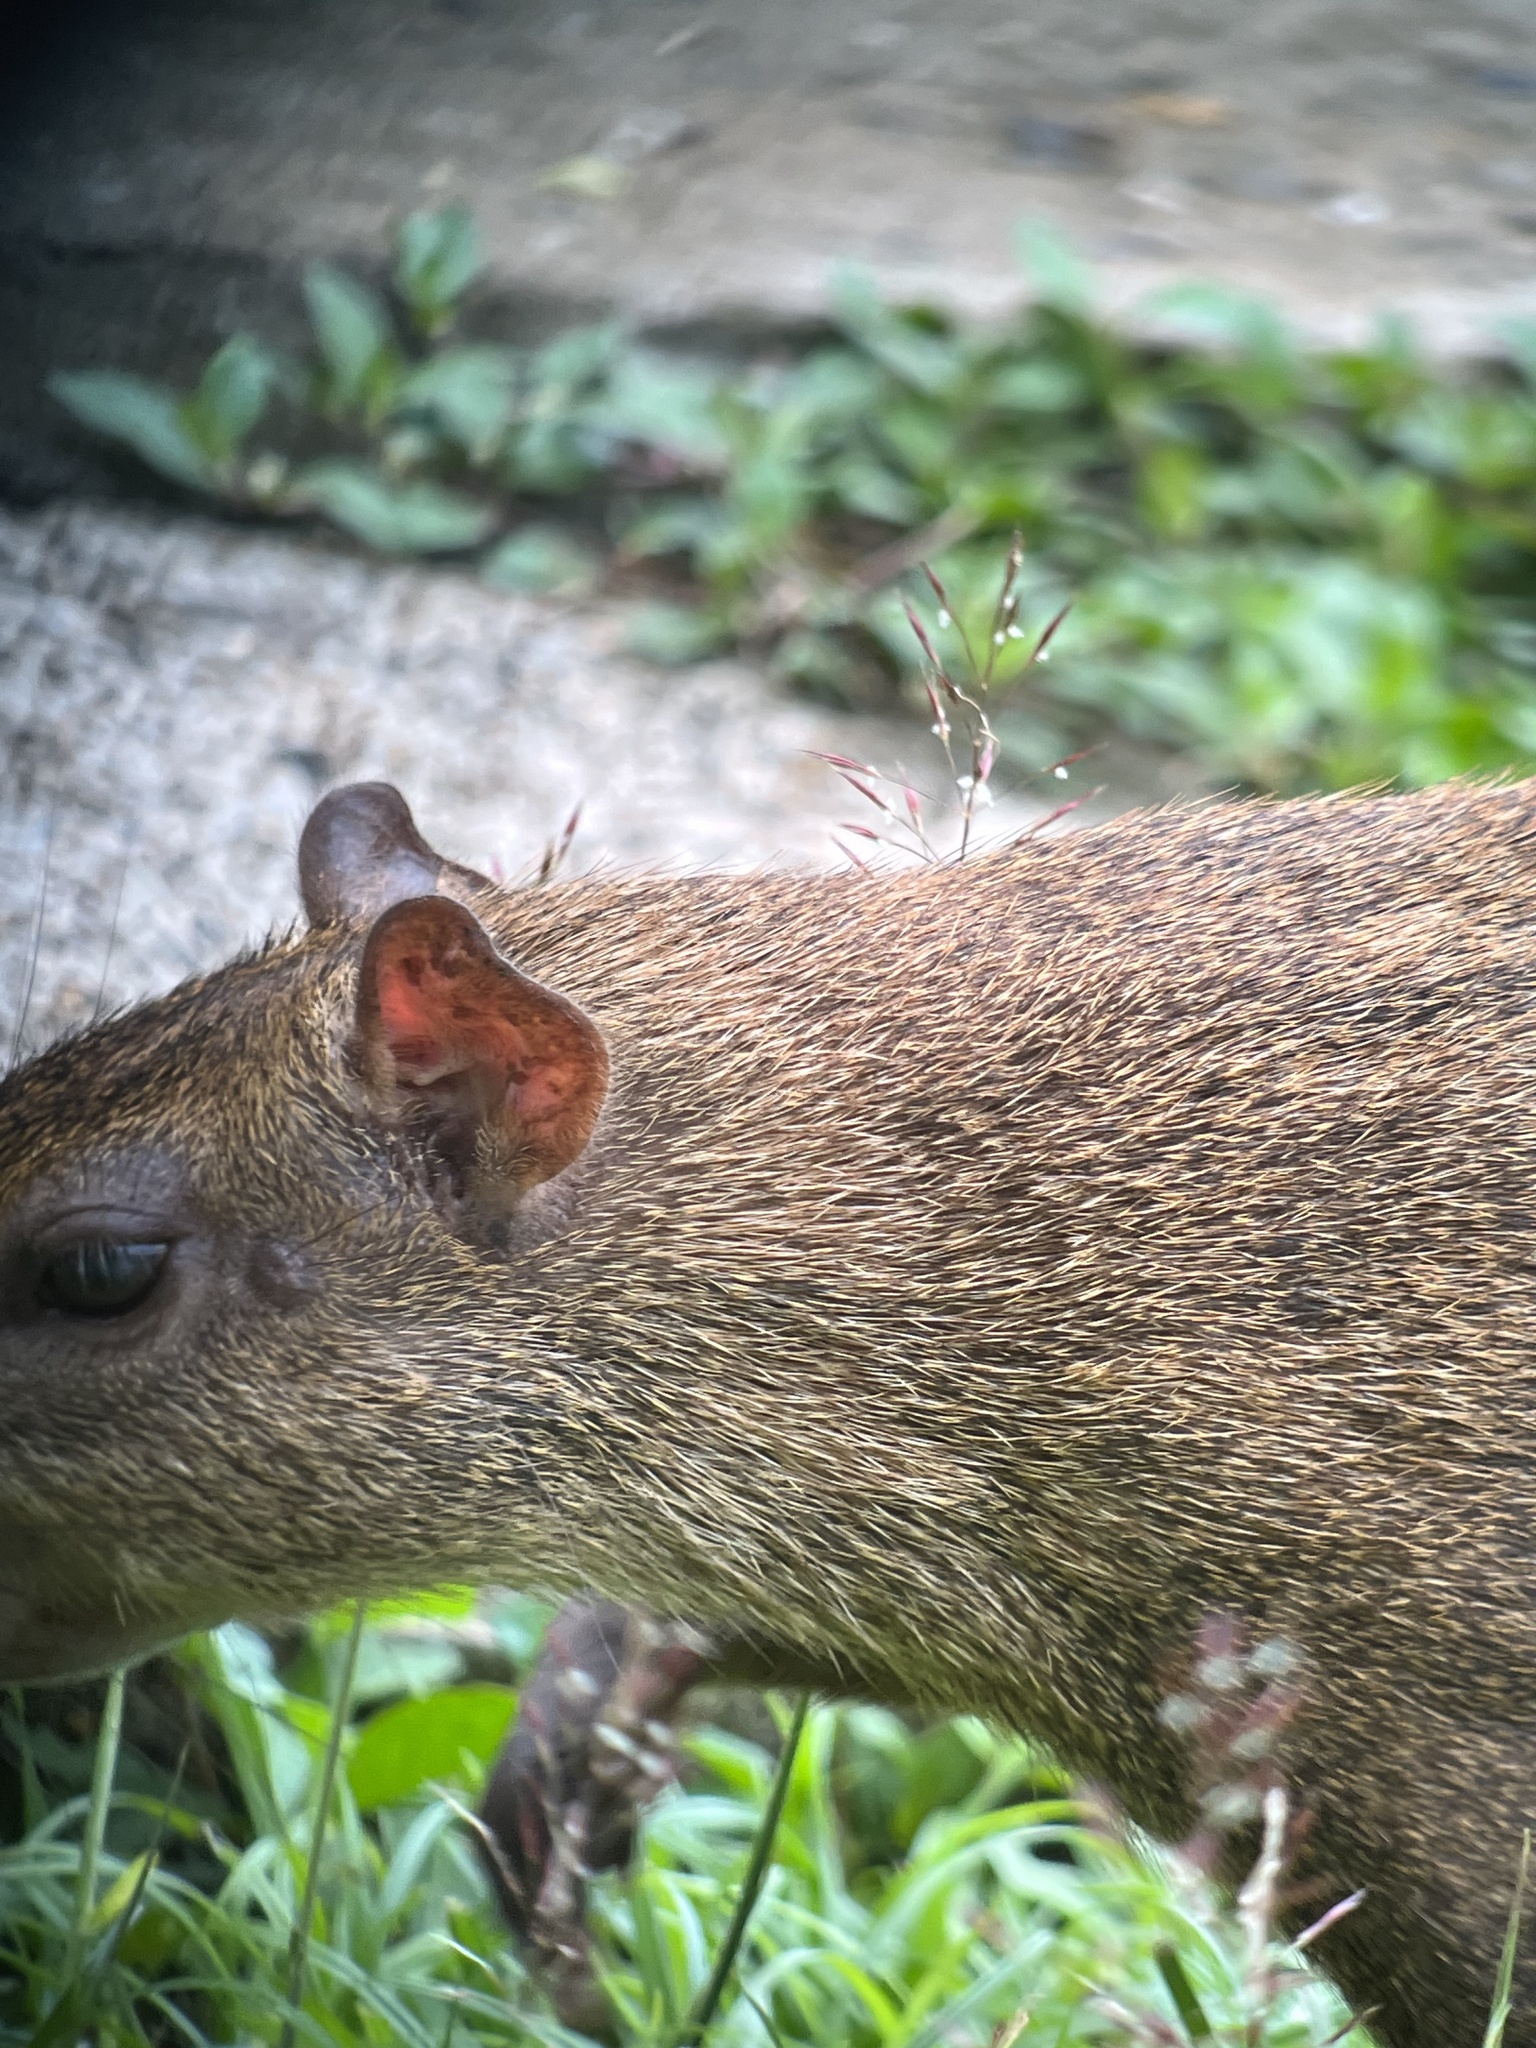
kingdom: Animalia
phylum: Chordata
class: Mammalia
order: Rodentia
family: Dasyproctidae
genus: Dasyprocta
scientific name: Dasyprocta coibae
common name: Coiban agouti
